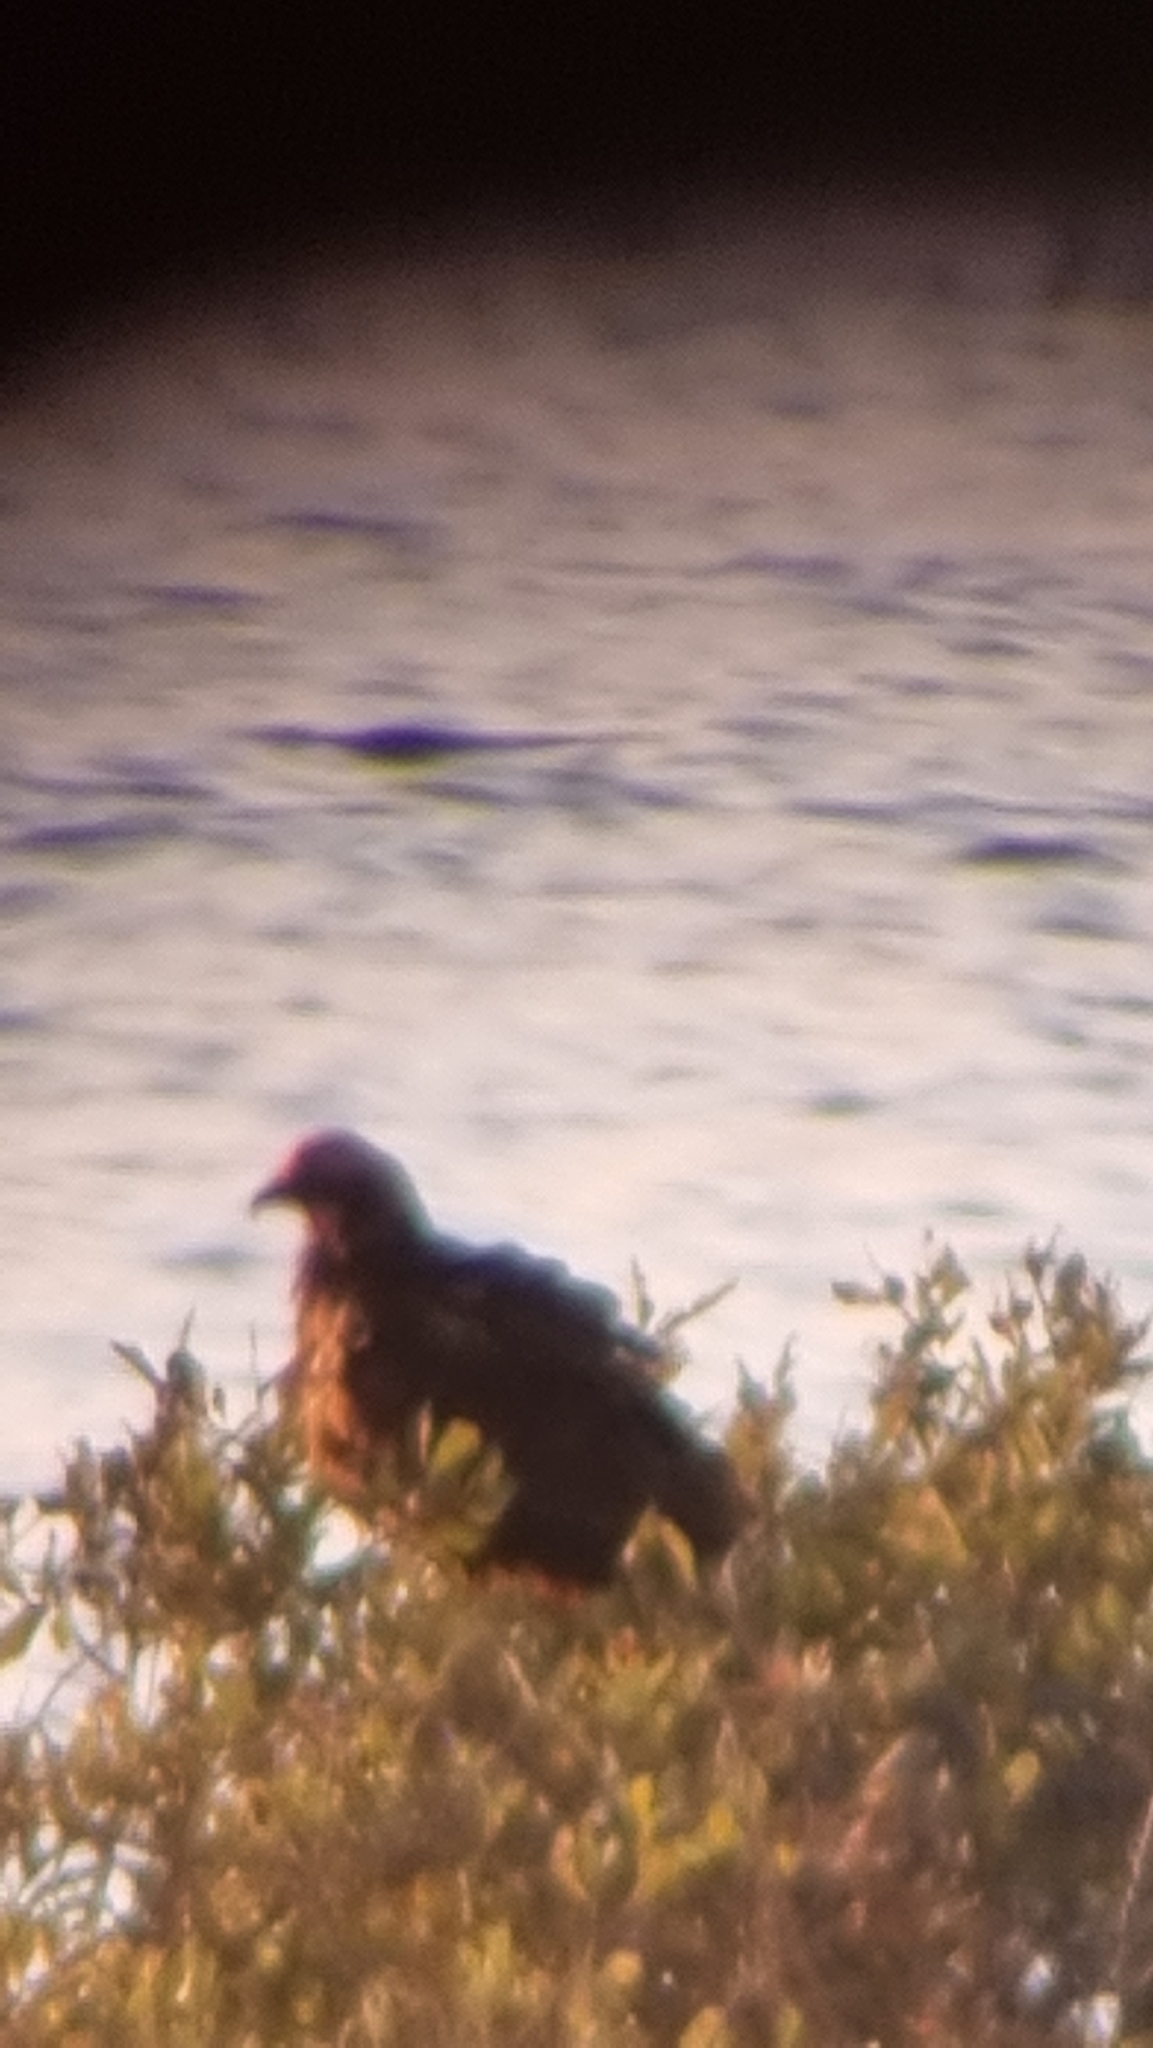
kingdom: Animalia
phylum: Chordata
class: Aves
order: Accipitriformes
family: Accipitridae
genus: Circus
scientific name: Circus aeruginosus
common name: Western marsh harrier
